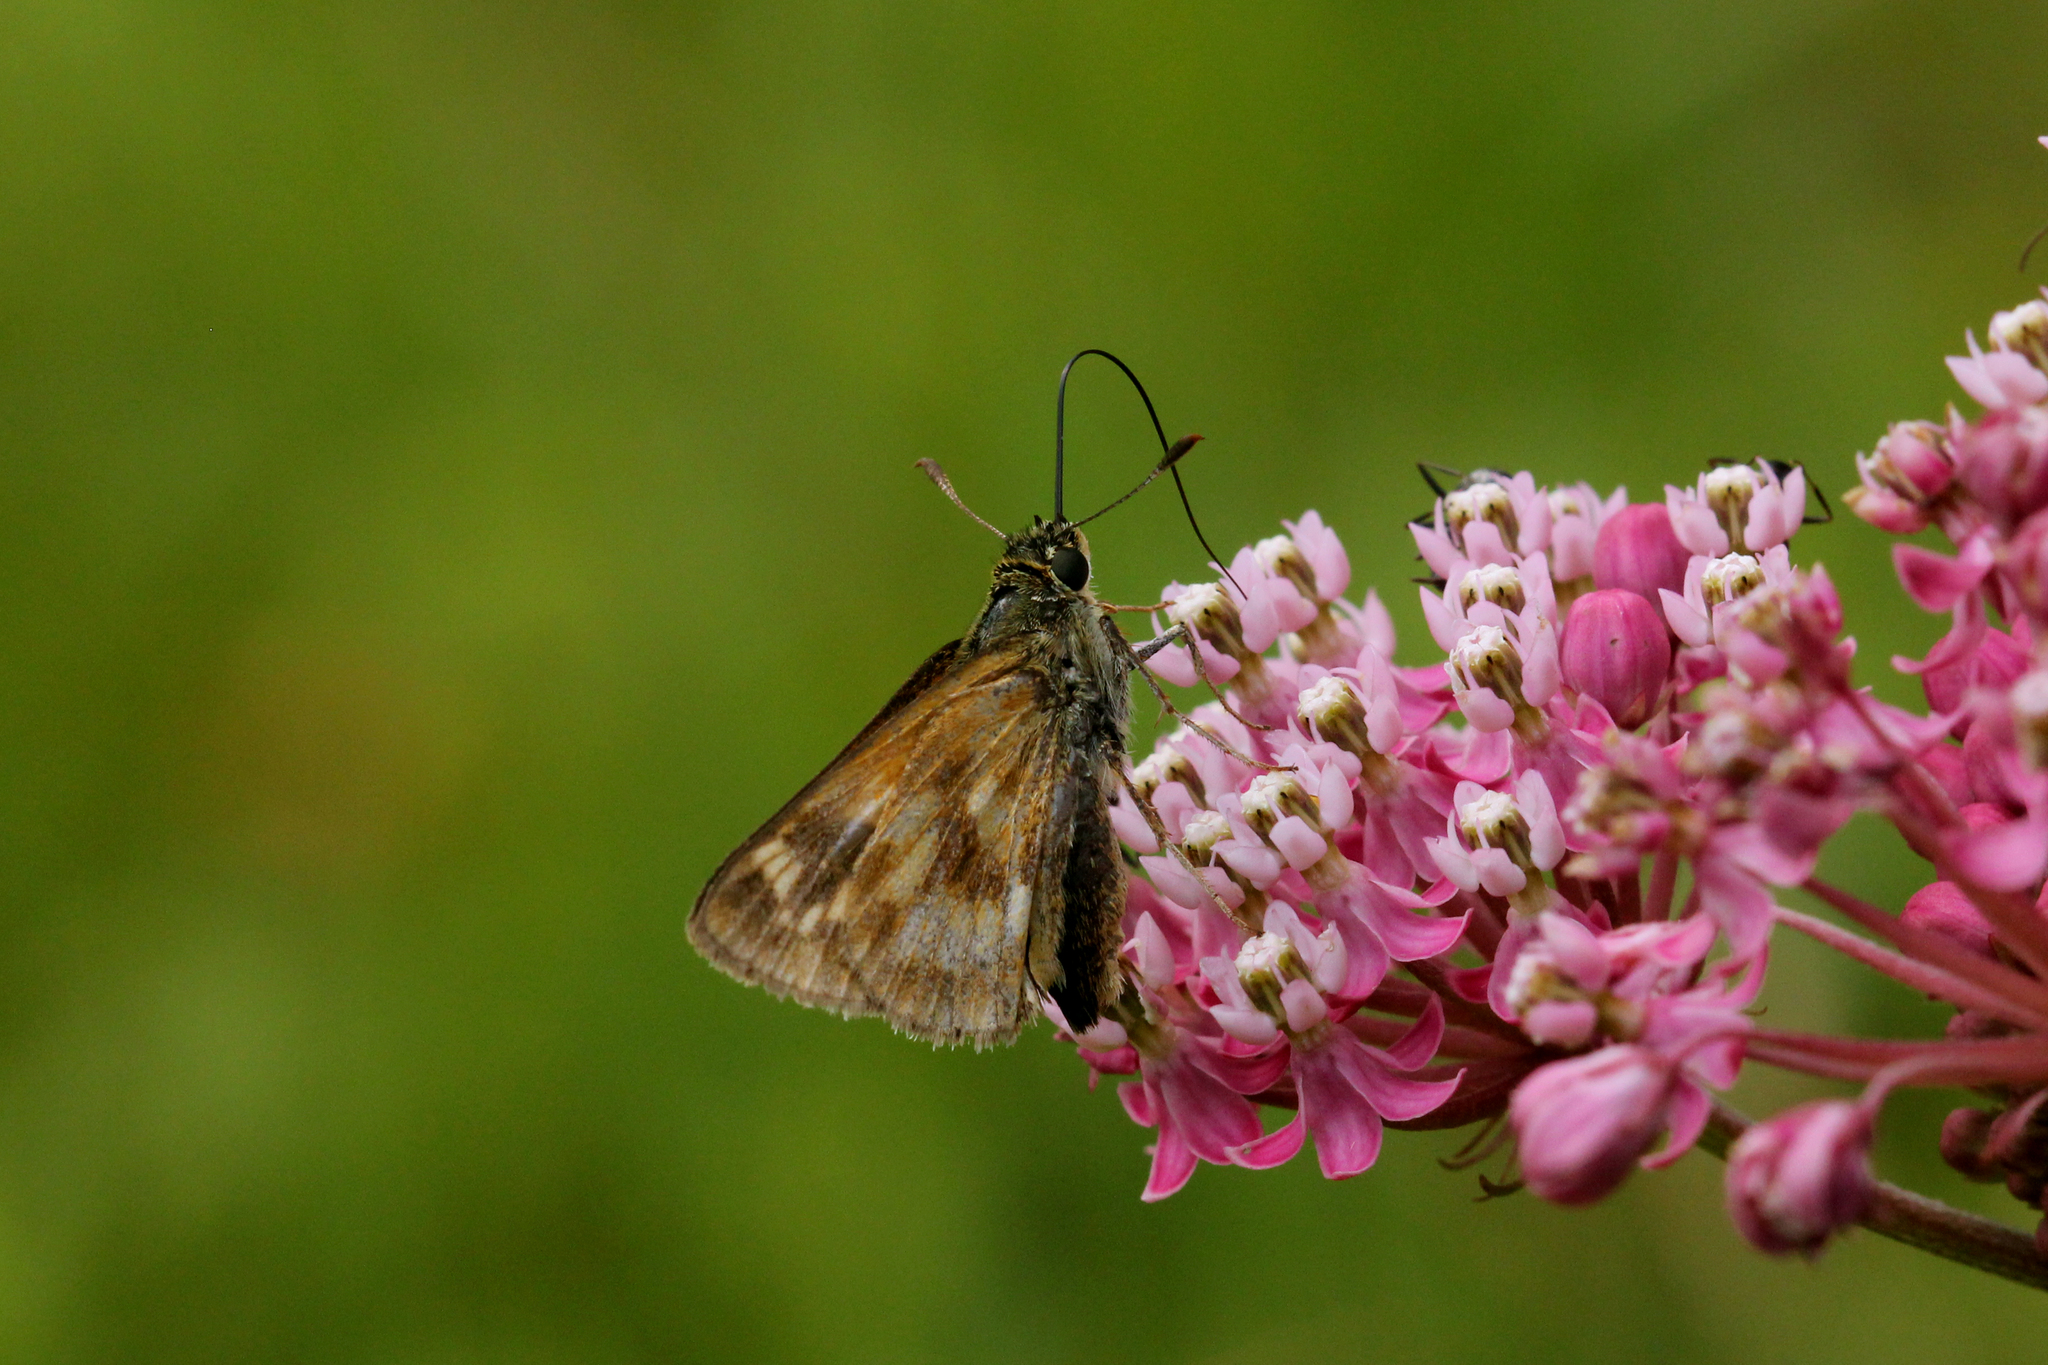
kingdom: Animalia
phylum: Arthropoda
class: Insecta
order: Lepidoptera
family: Hesperiidae
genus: Polites
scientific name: Polites mystic
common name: Long dash
